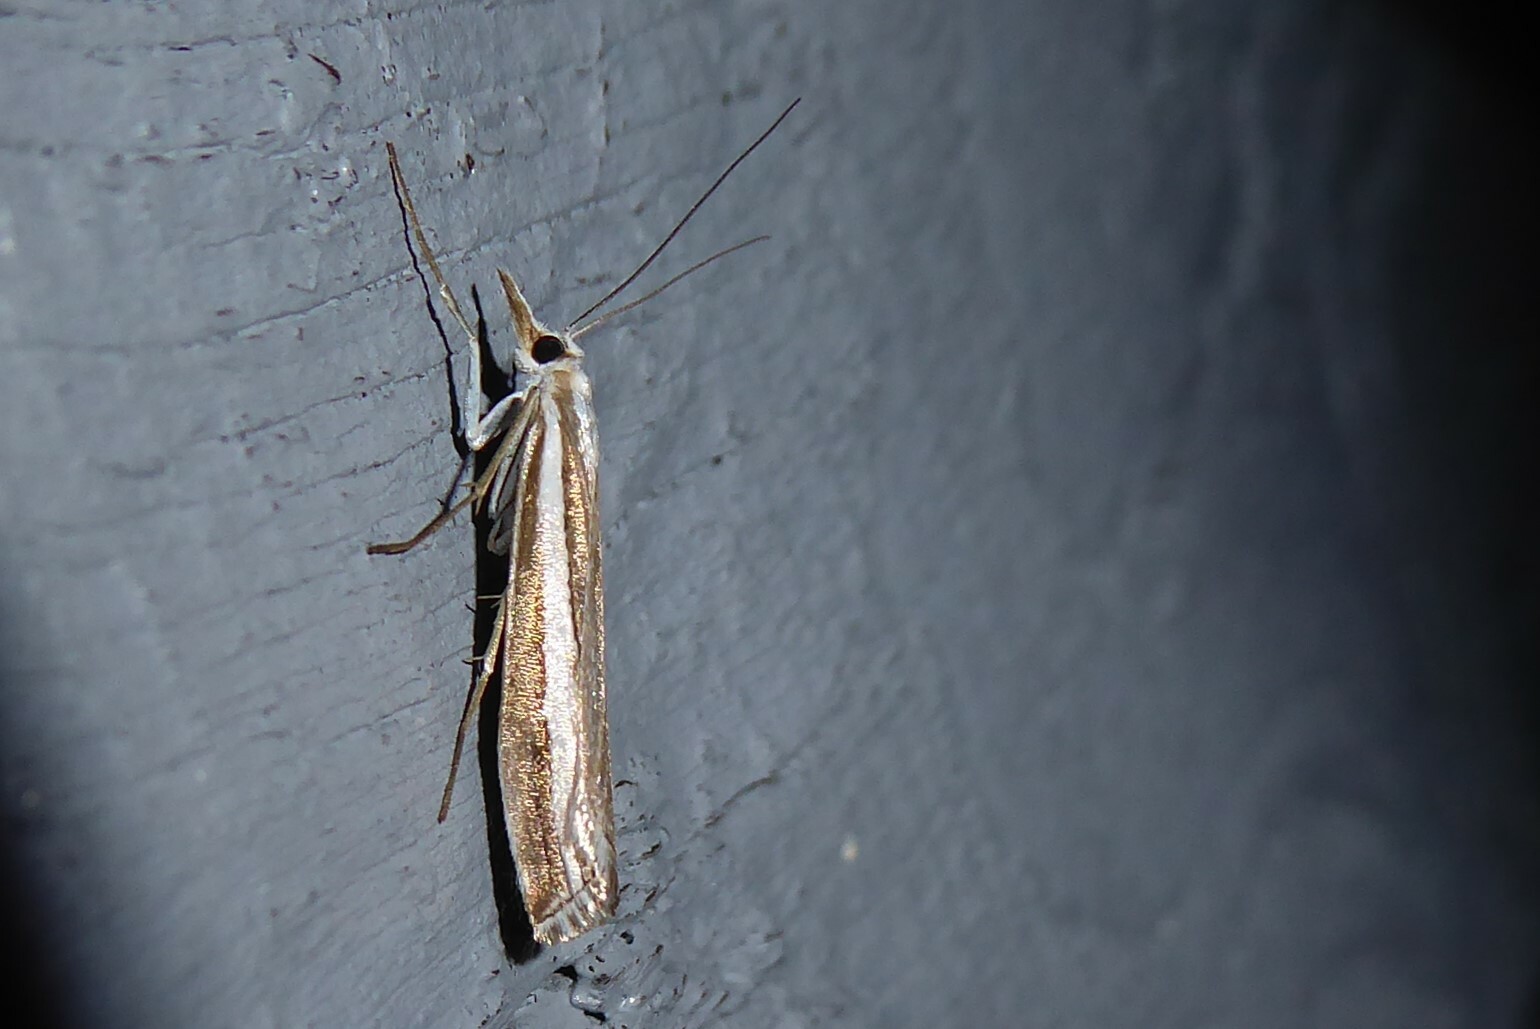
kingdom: Animalia
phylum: Arthropoda
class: Insecta
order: Lepidoptera
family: Crambidae
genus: Orocrambus
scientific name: Orocrambus vittellus
